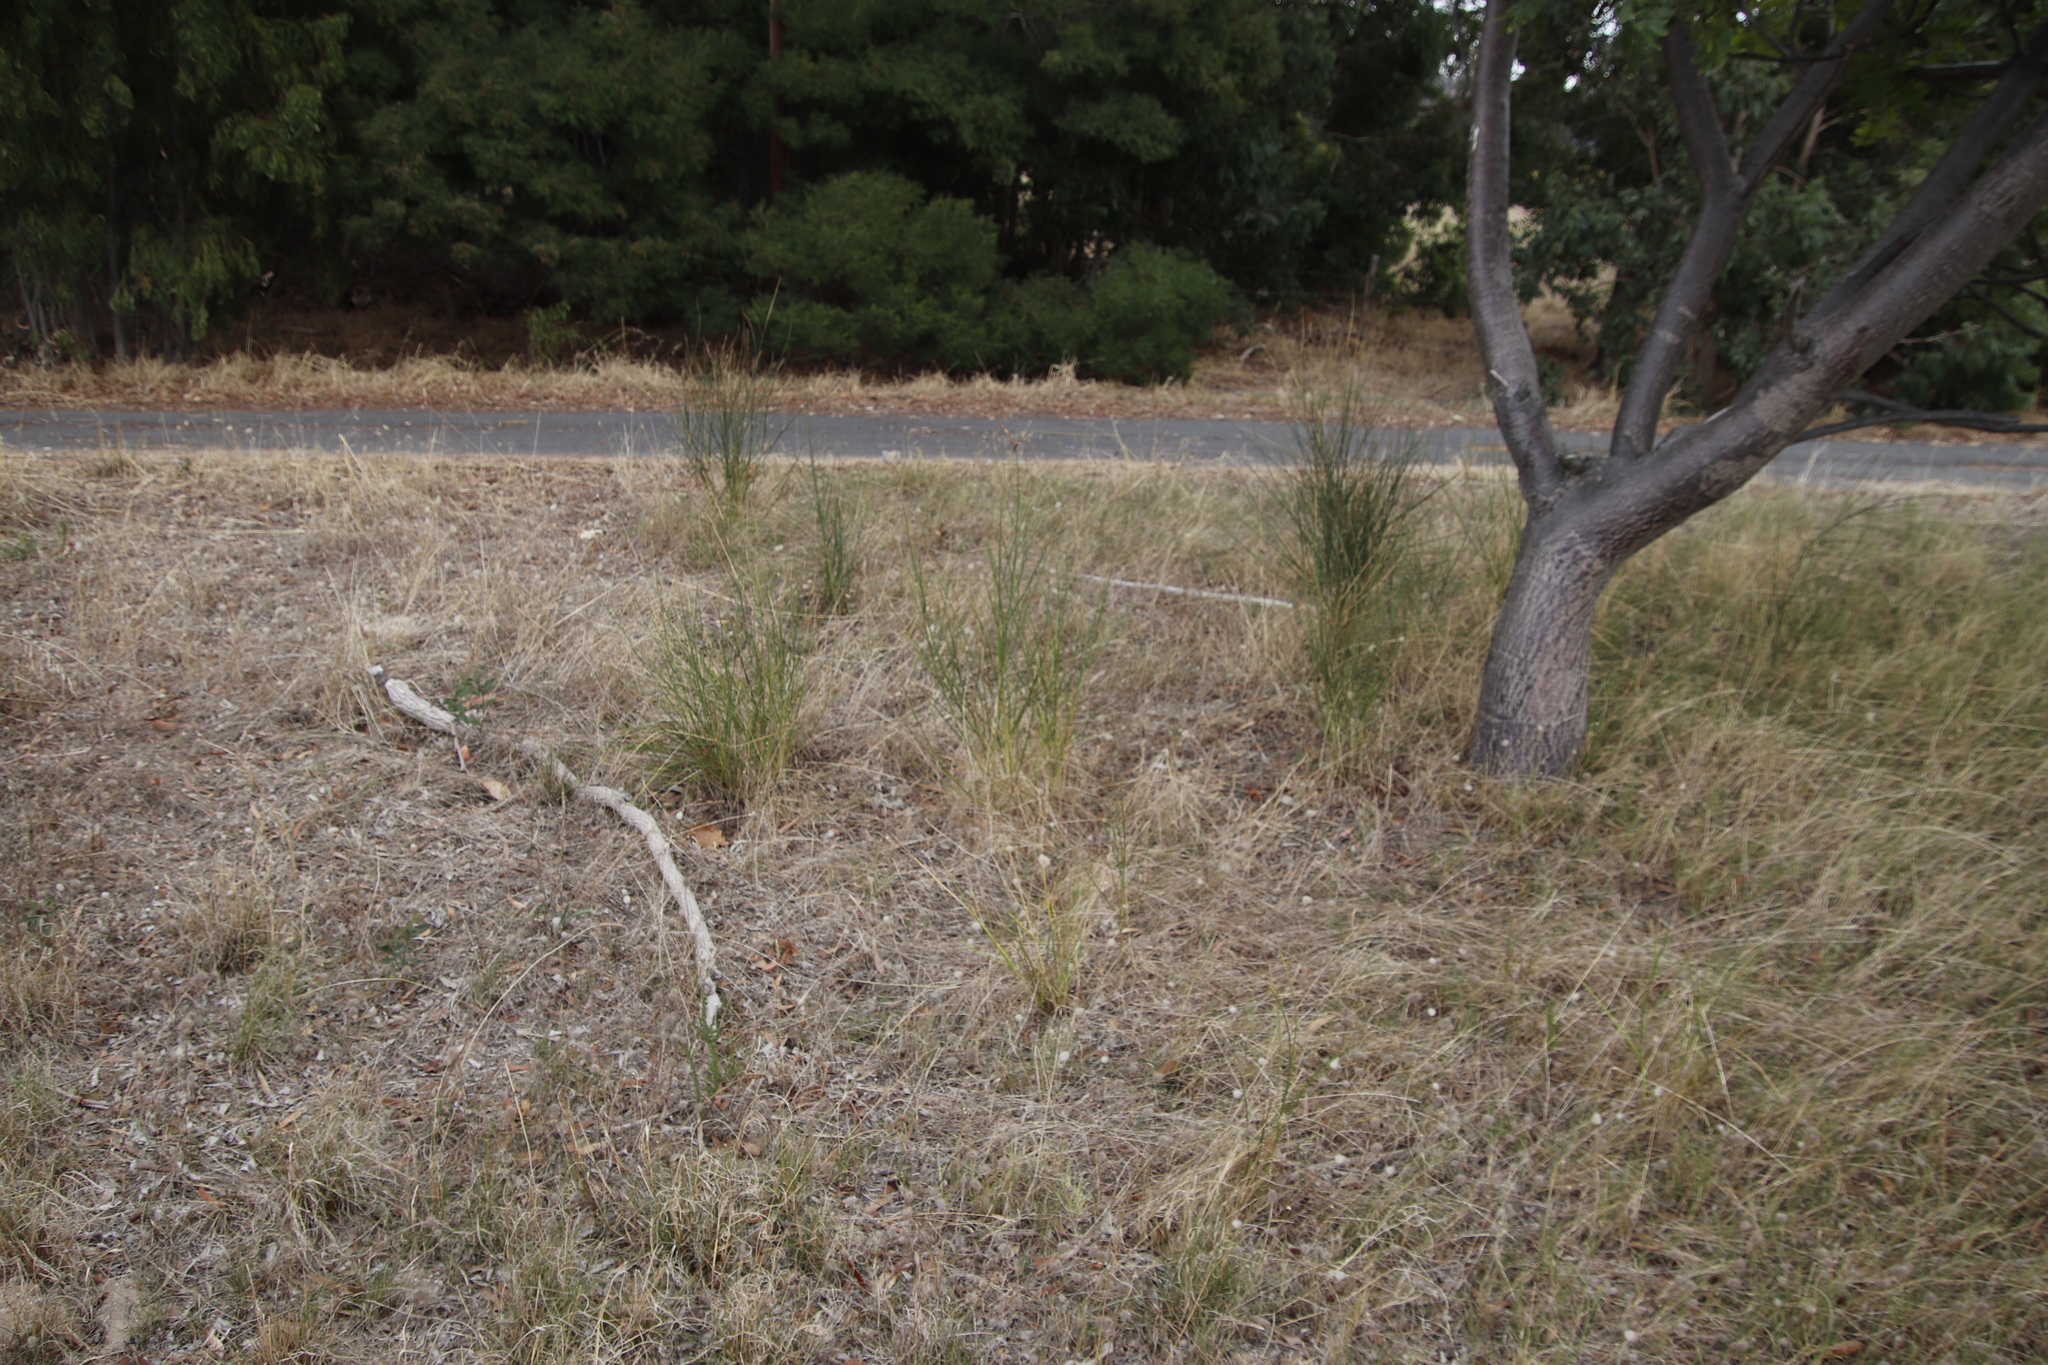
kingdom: Plantae
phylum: Tracheophyta
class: Magnoliopsida
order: Fabales
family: Fabaceae
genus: Spartium
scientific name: Spartium junceum
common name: Spanish broom
